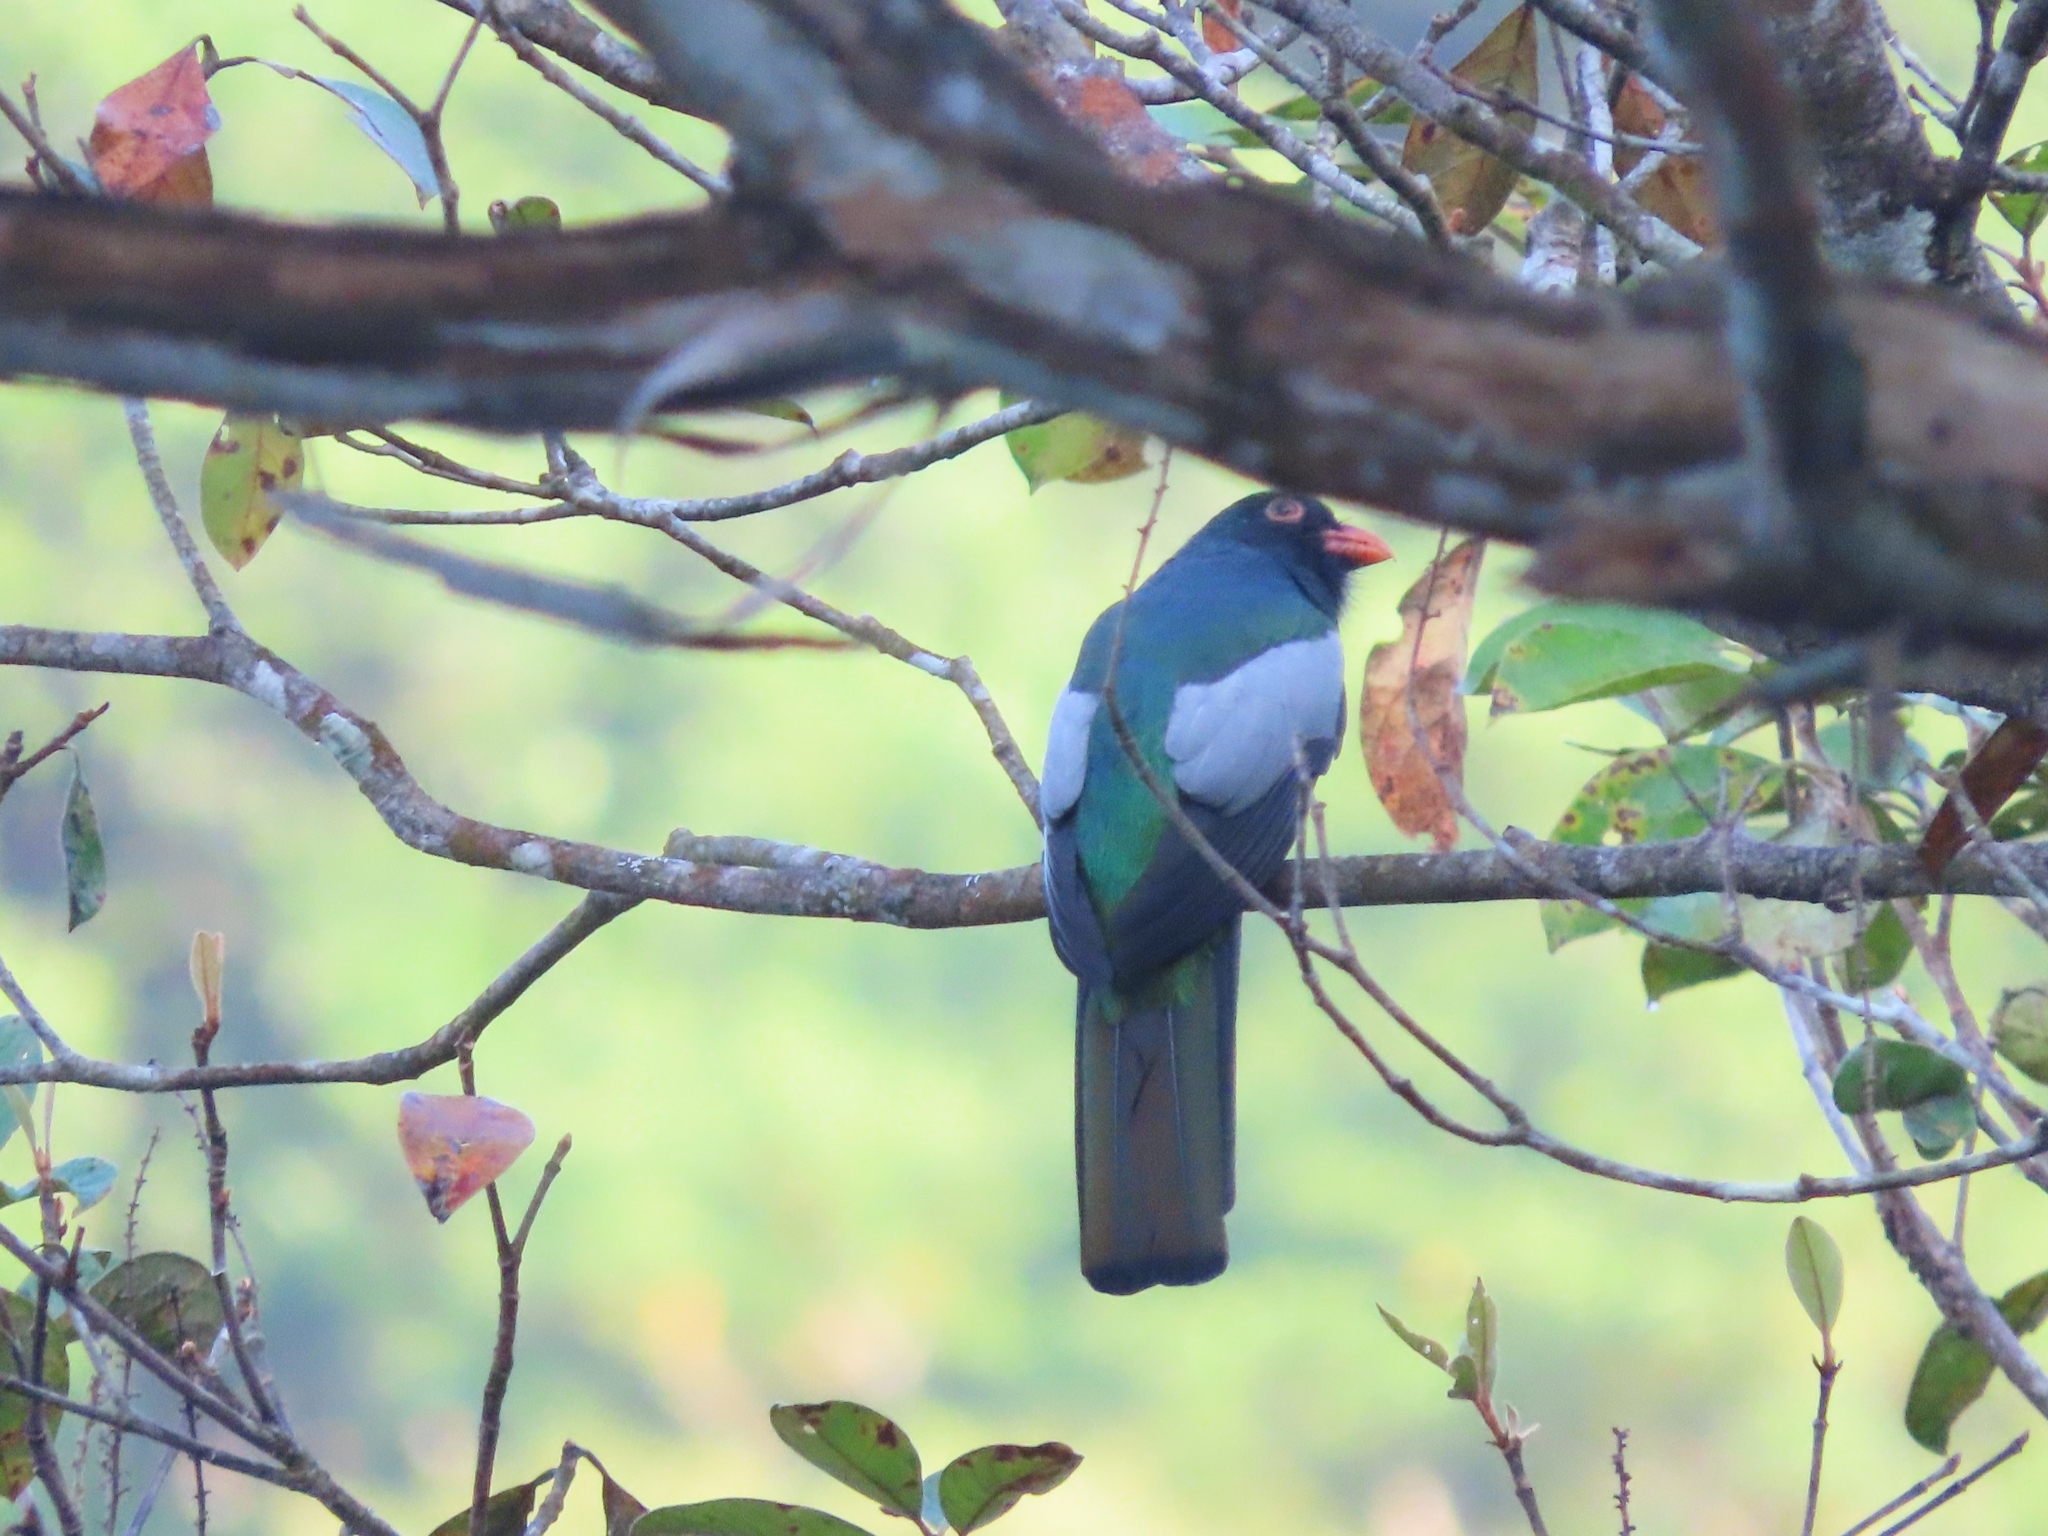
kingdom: Animalia
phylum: Chordata
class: Aves
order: Trogoniformes
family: Trogonidae
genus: Trogon
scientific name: Trogon massena
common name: Slaty-tailed trogon
